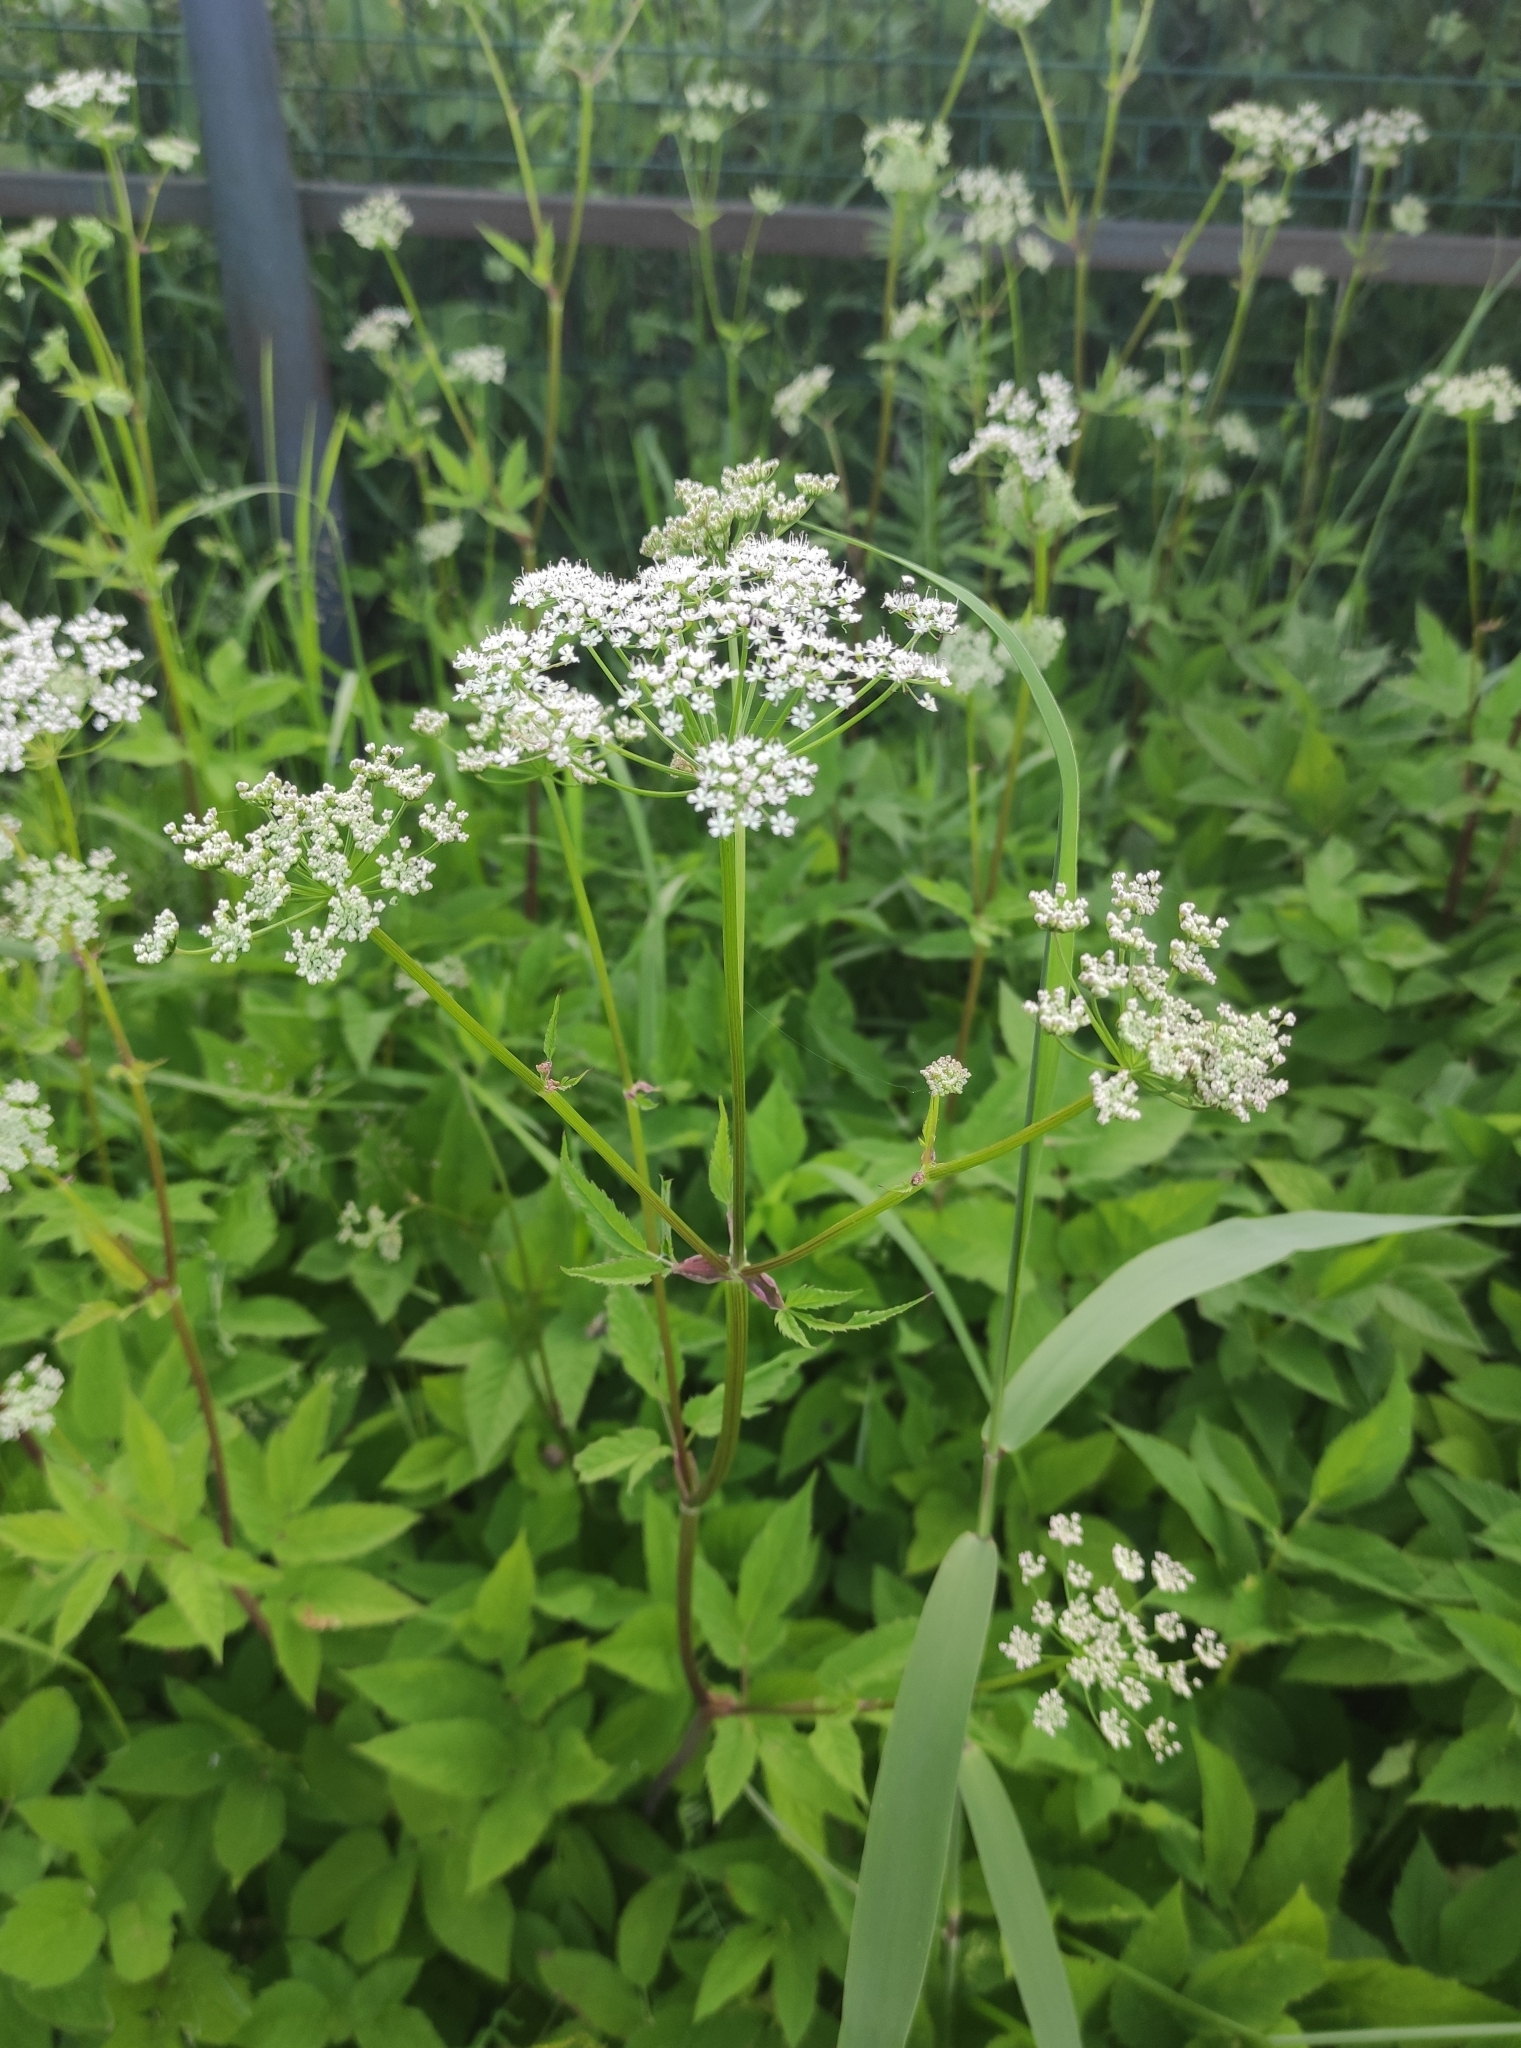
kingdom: Plantae
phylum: Tracheophyta
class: Magnoliopsida
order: Apiales
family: Apiaceae
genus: Aegopodium
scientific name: Aegopodium podagraria
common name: Ground-elder
